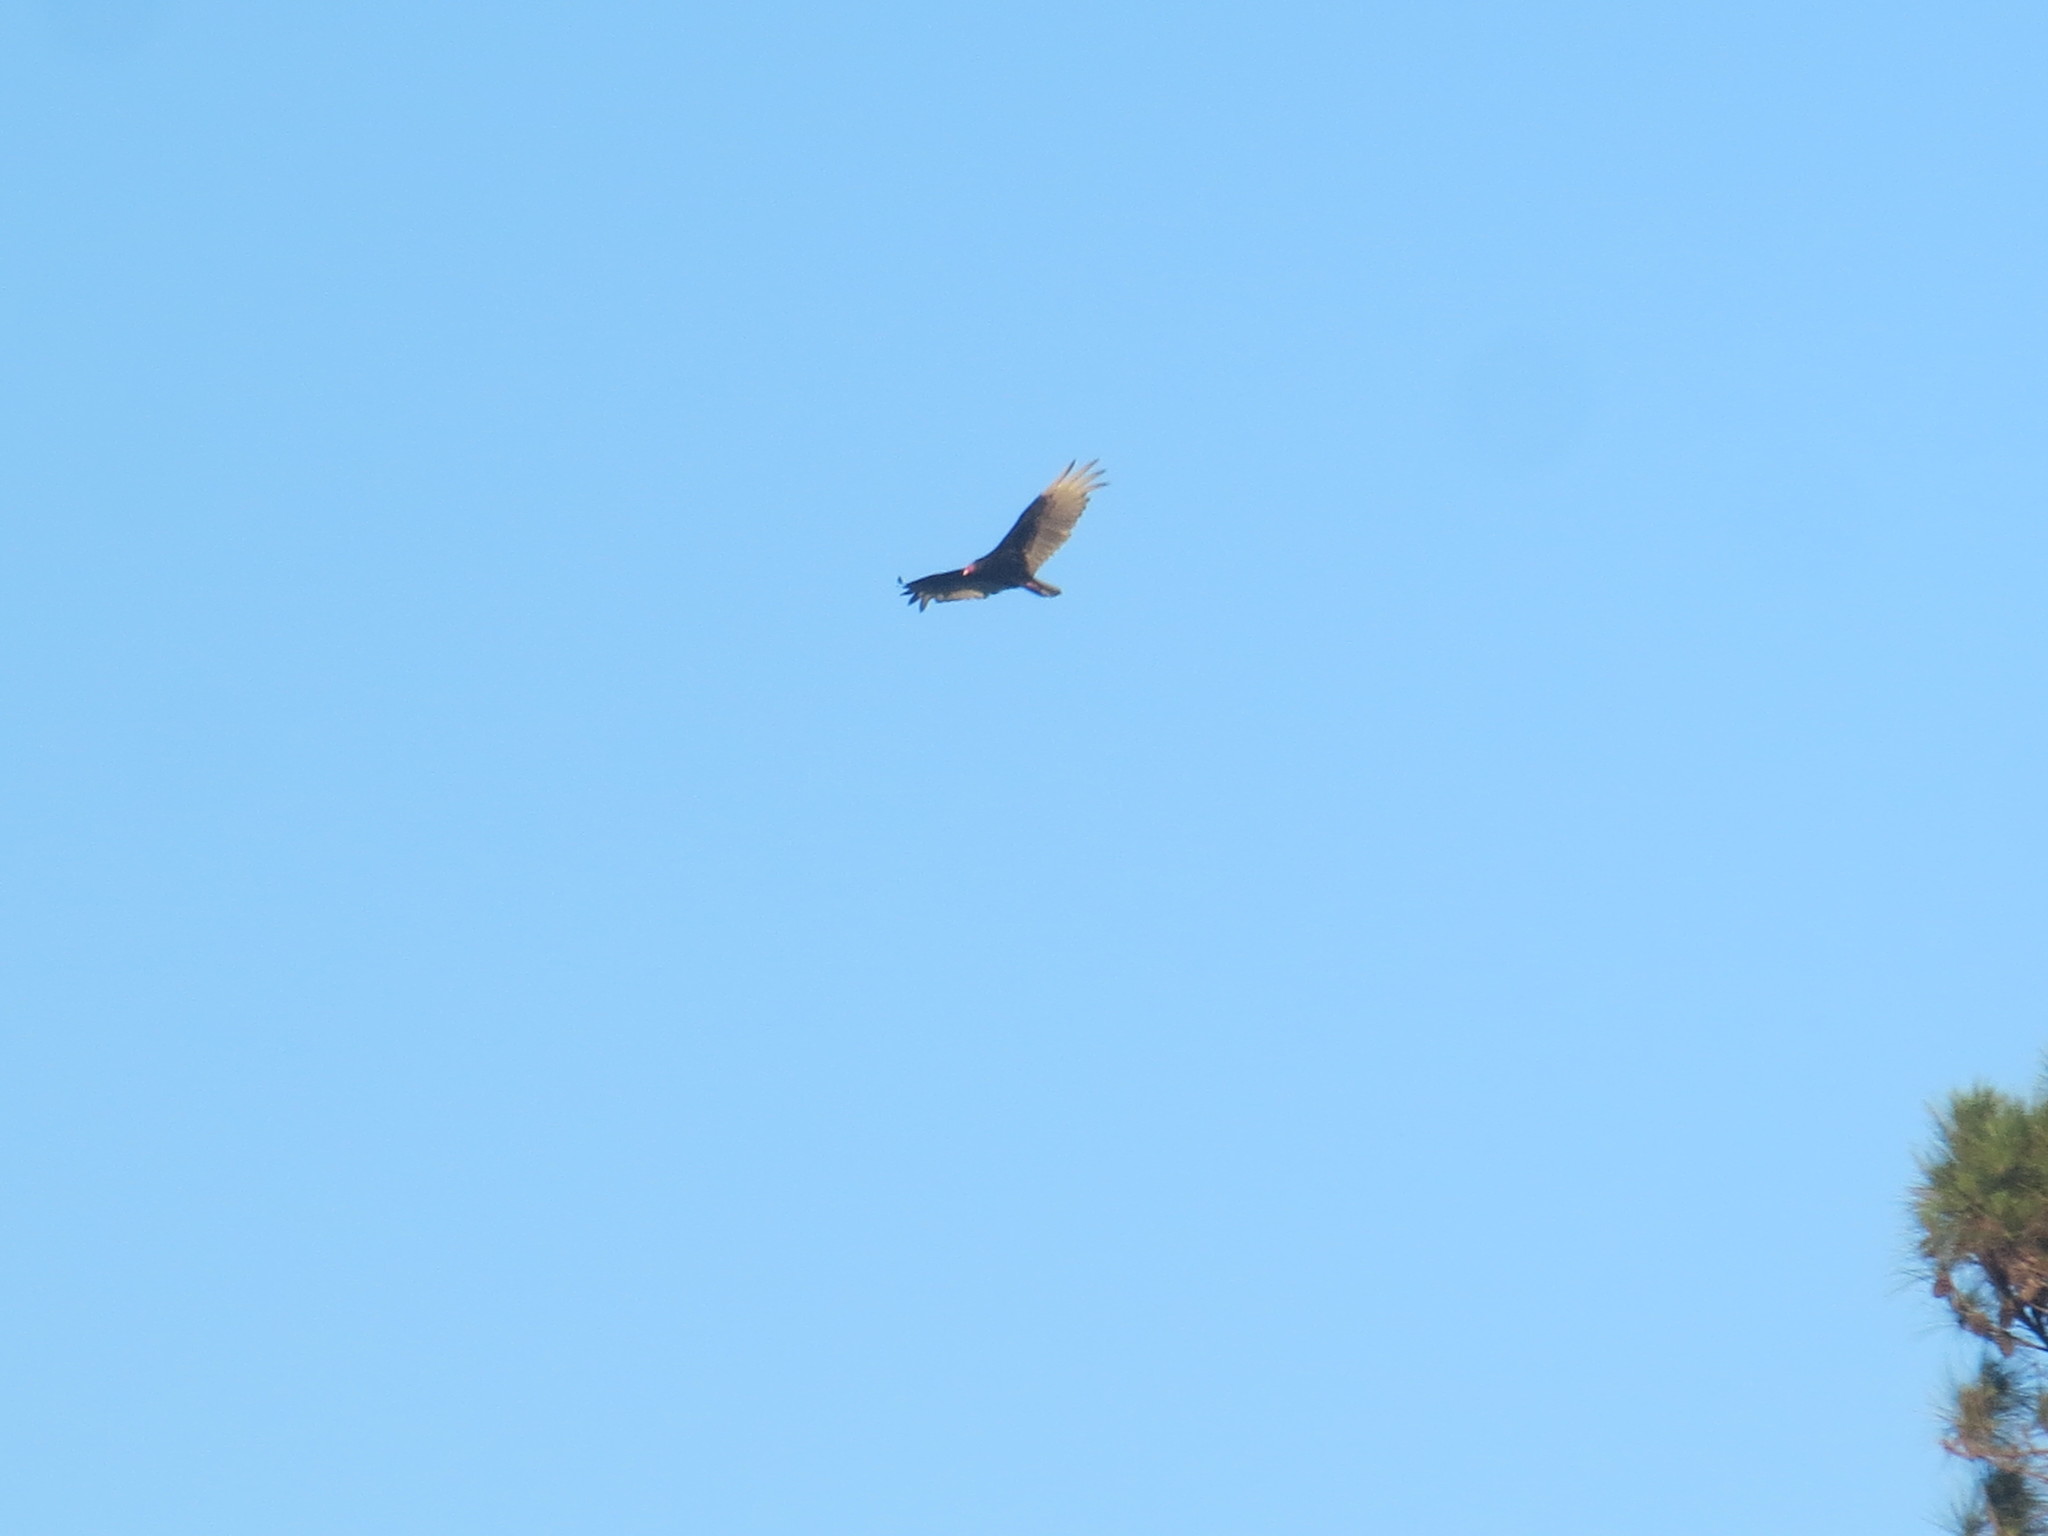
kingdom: Animalia
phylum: Chordata
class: Aves
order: Accipitriformes
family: Cathartidae
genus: Cathartes
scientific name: Cathartes aura
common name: Turkey vulture
